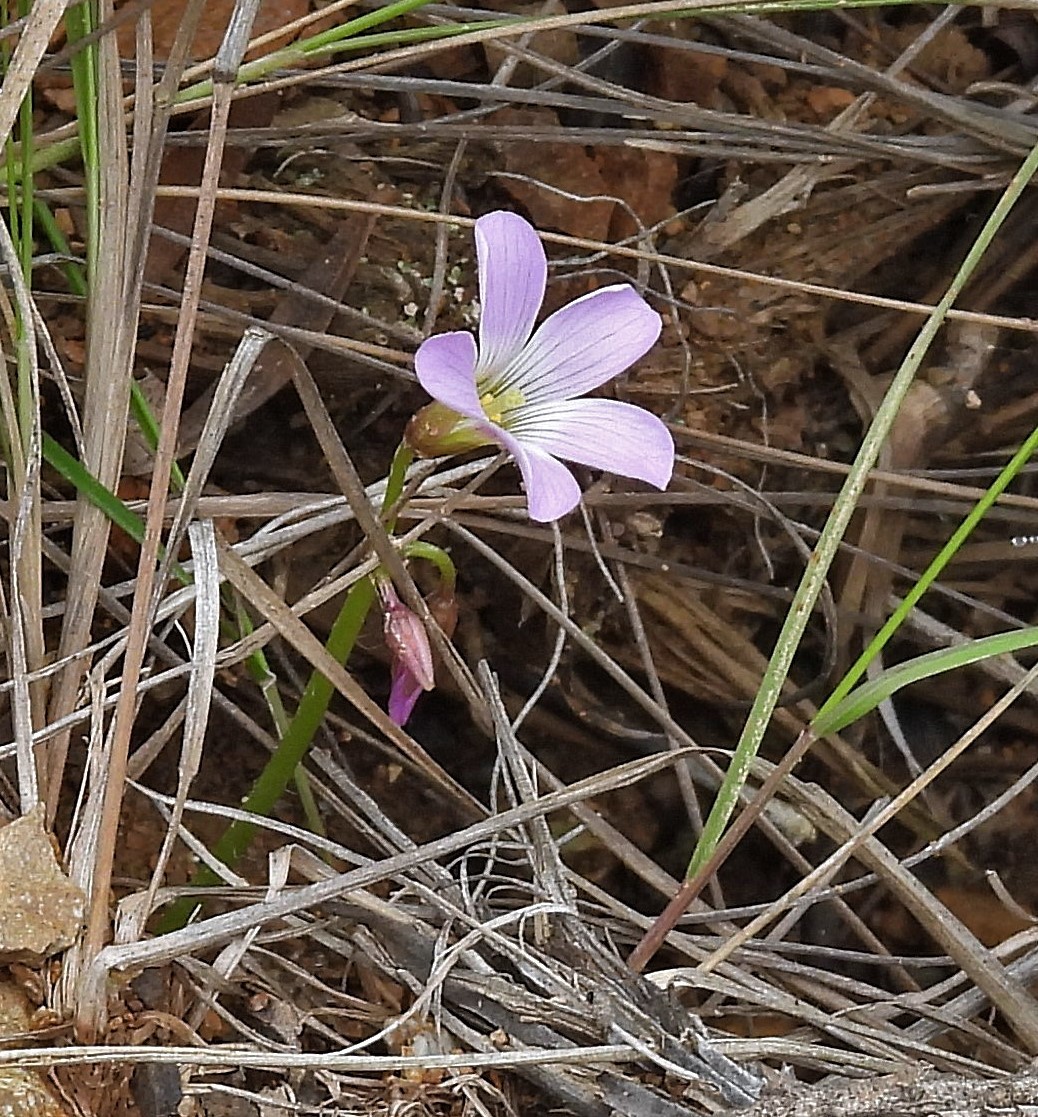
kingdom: Plantae
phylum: Tracheophyta
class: Magnoliopsida
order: Oxalidales
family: Oxalidaceae
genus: Oxalis
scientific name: Oxalis trollii
